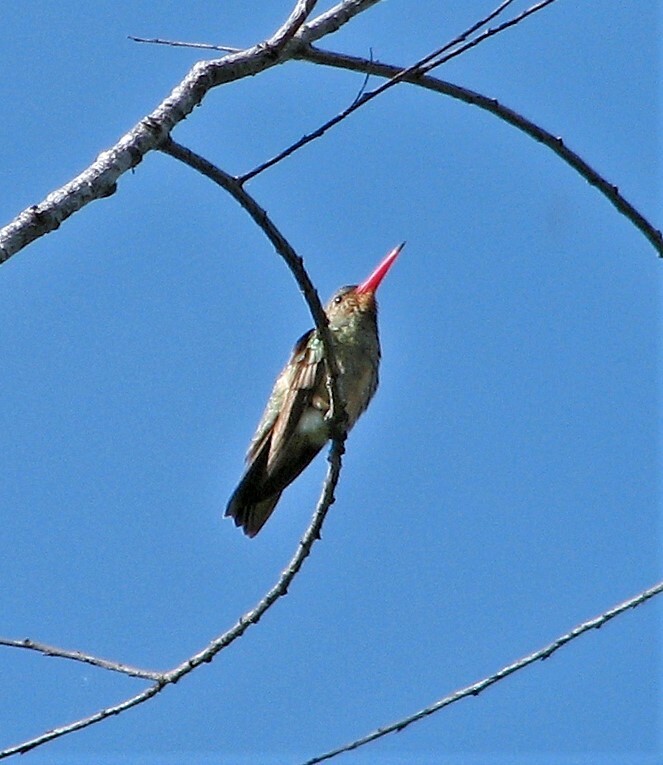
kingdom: Animalia
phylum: Chordata
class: Aves
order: Apodiformes
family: Trochilidae
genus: Hylocharis
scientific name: Hylocharis chrysura
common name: Gilded sapphire
